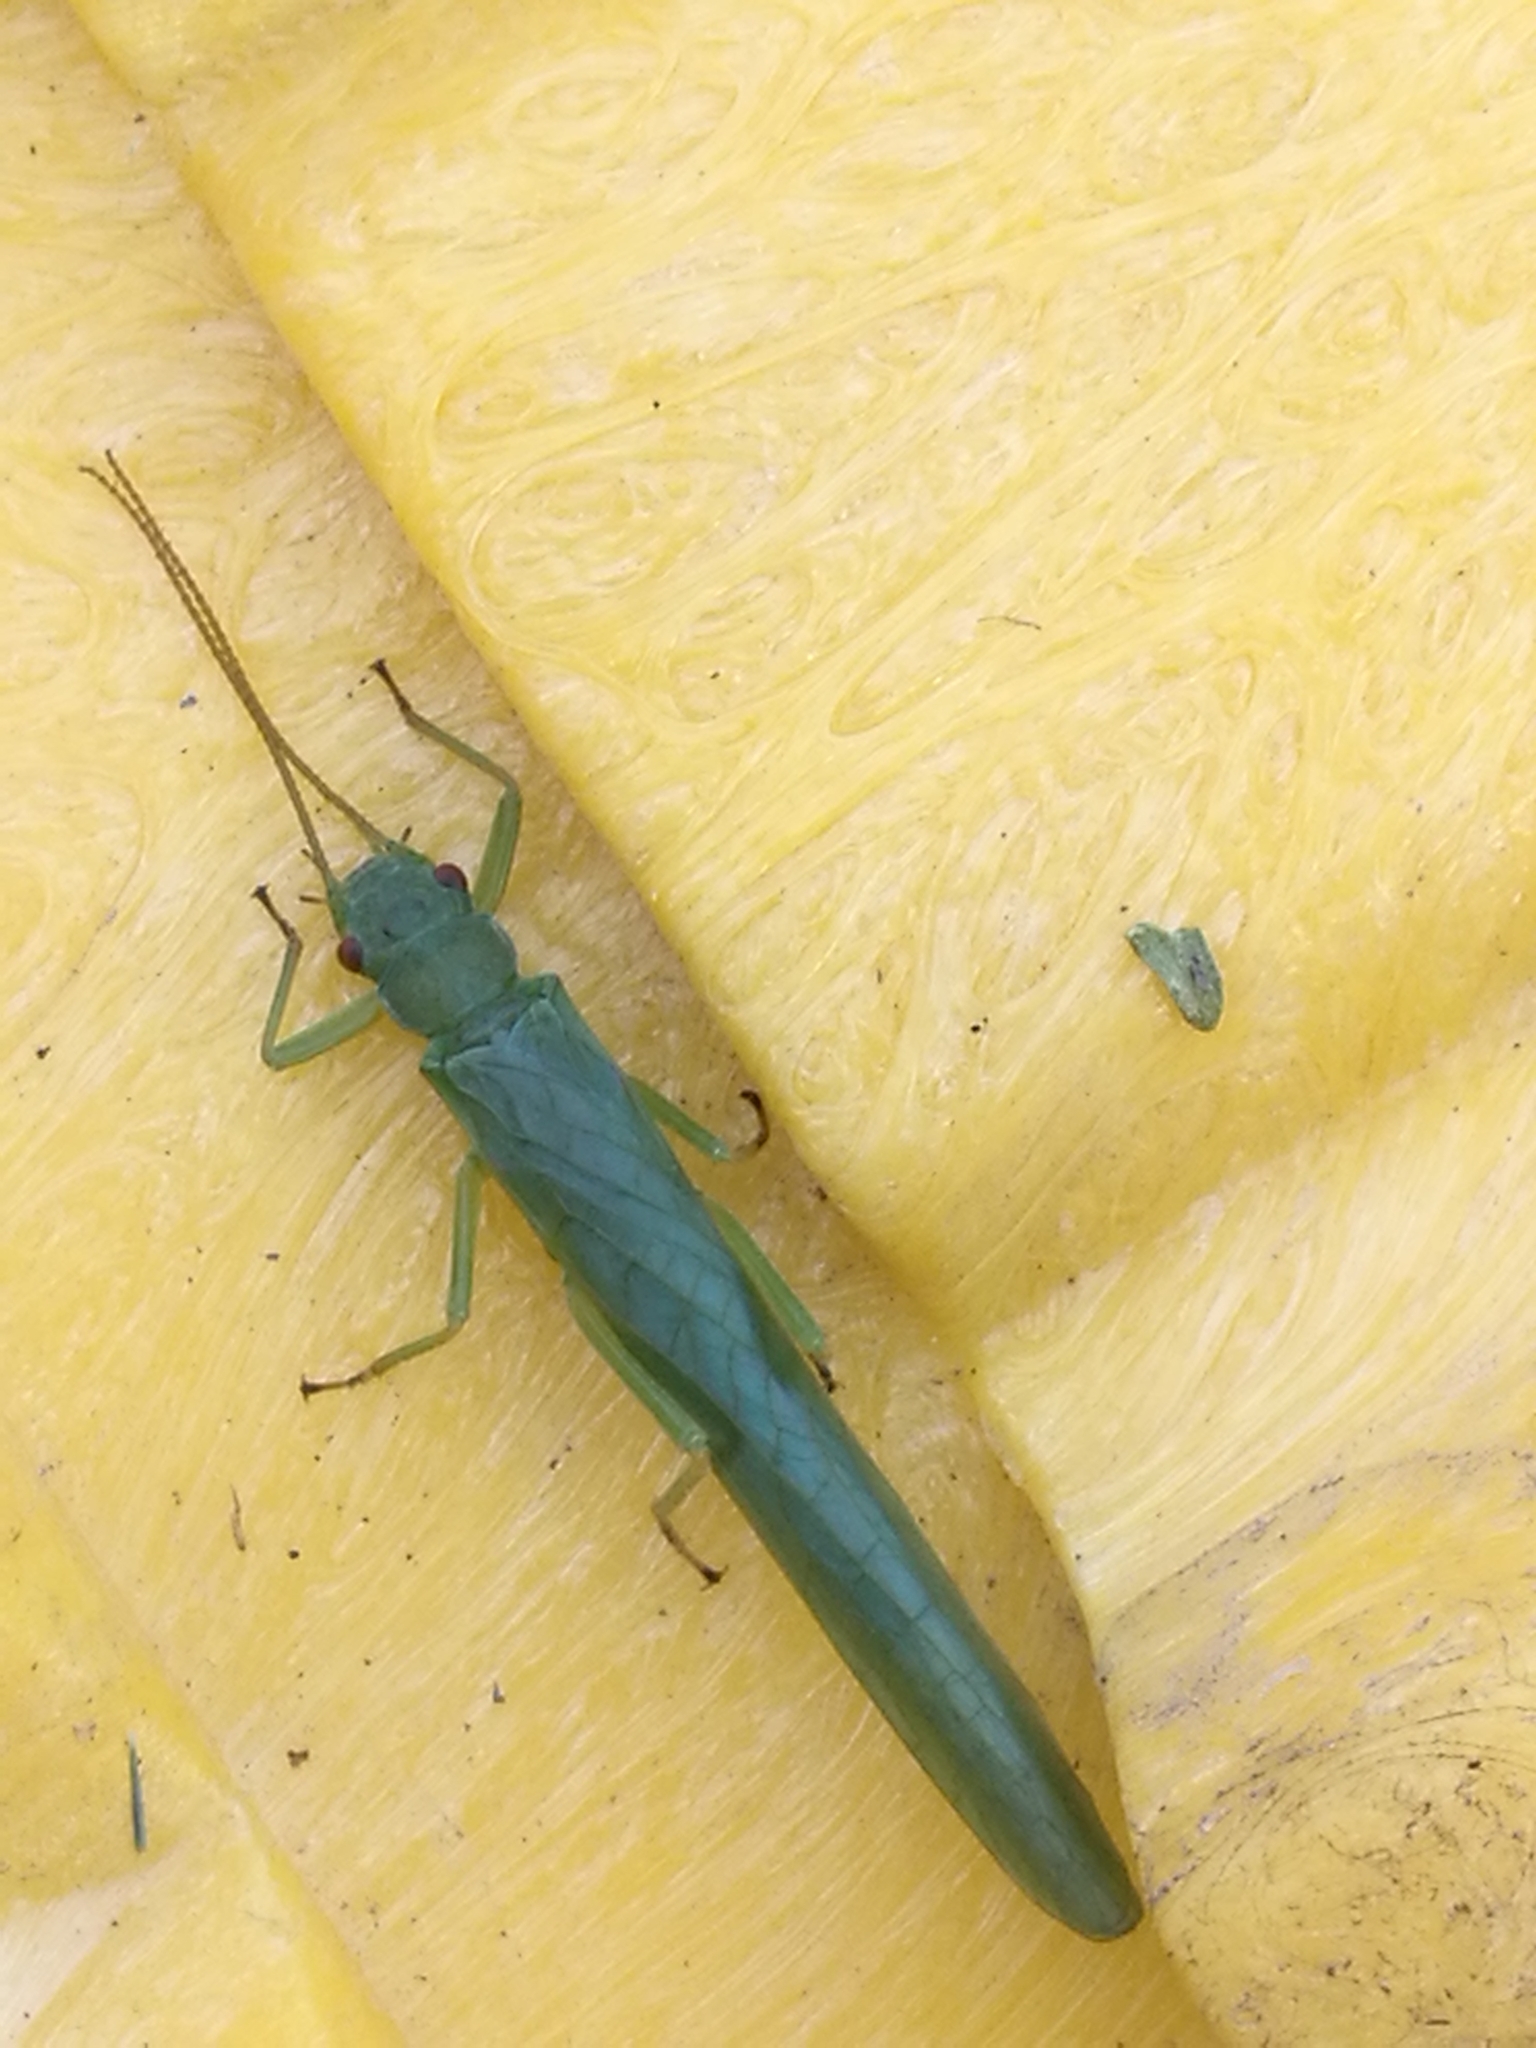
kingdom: Animalia
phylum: Arthropoda
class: Insecta
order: Plecoptera
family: Eustheniidae
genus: Stenoperla
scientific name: Stenoperla
